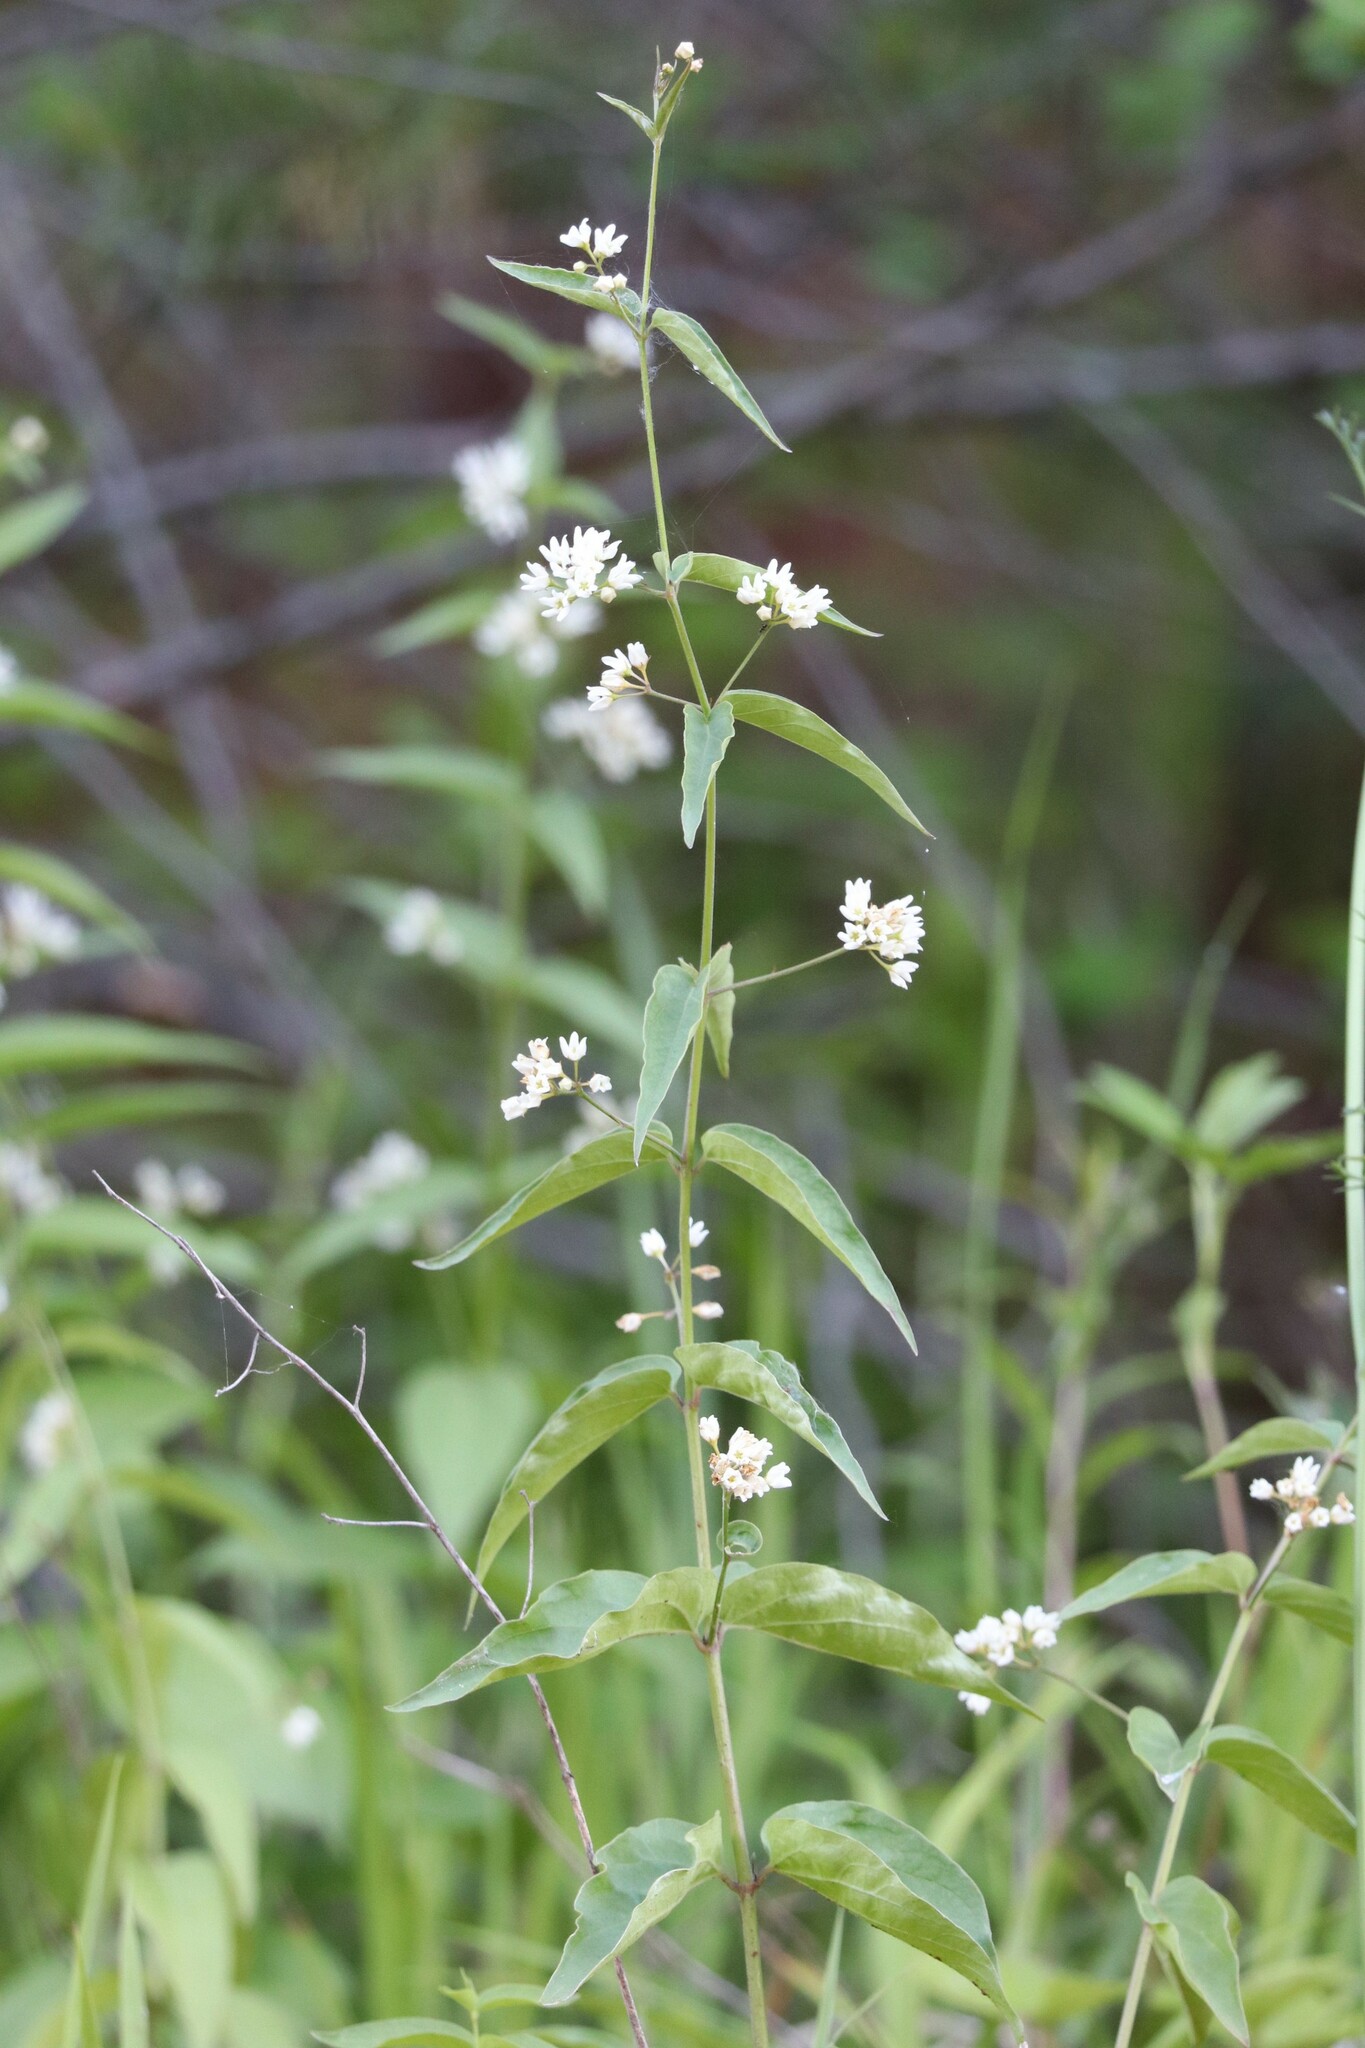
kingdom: Plantae
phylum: Tracheophyta
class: Magnoliopsida
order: Gentianales
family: Apocynaceae
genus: Vincetoxicum
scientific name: Vincetoxicum hirundinaria
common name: White swallowwort
